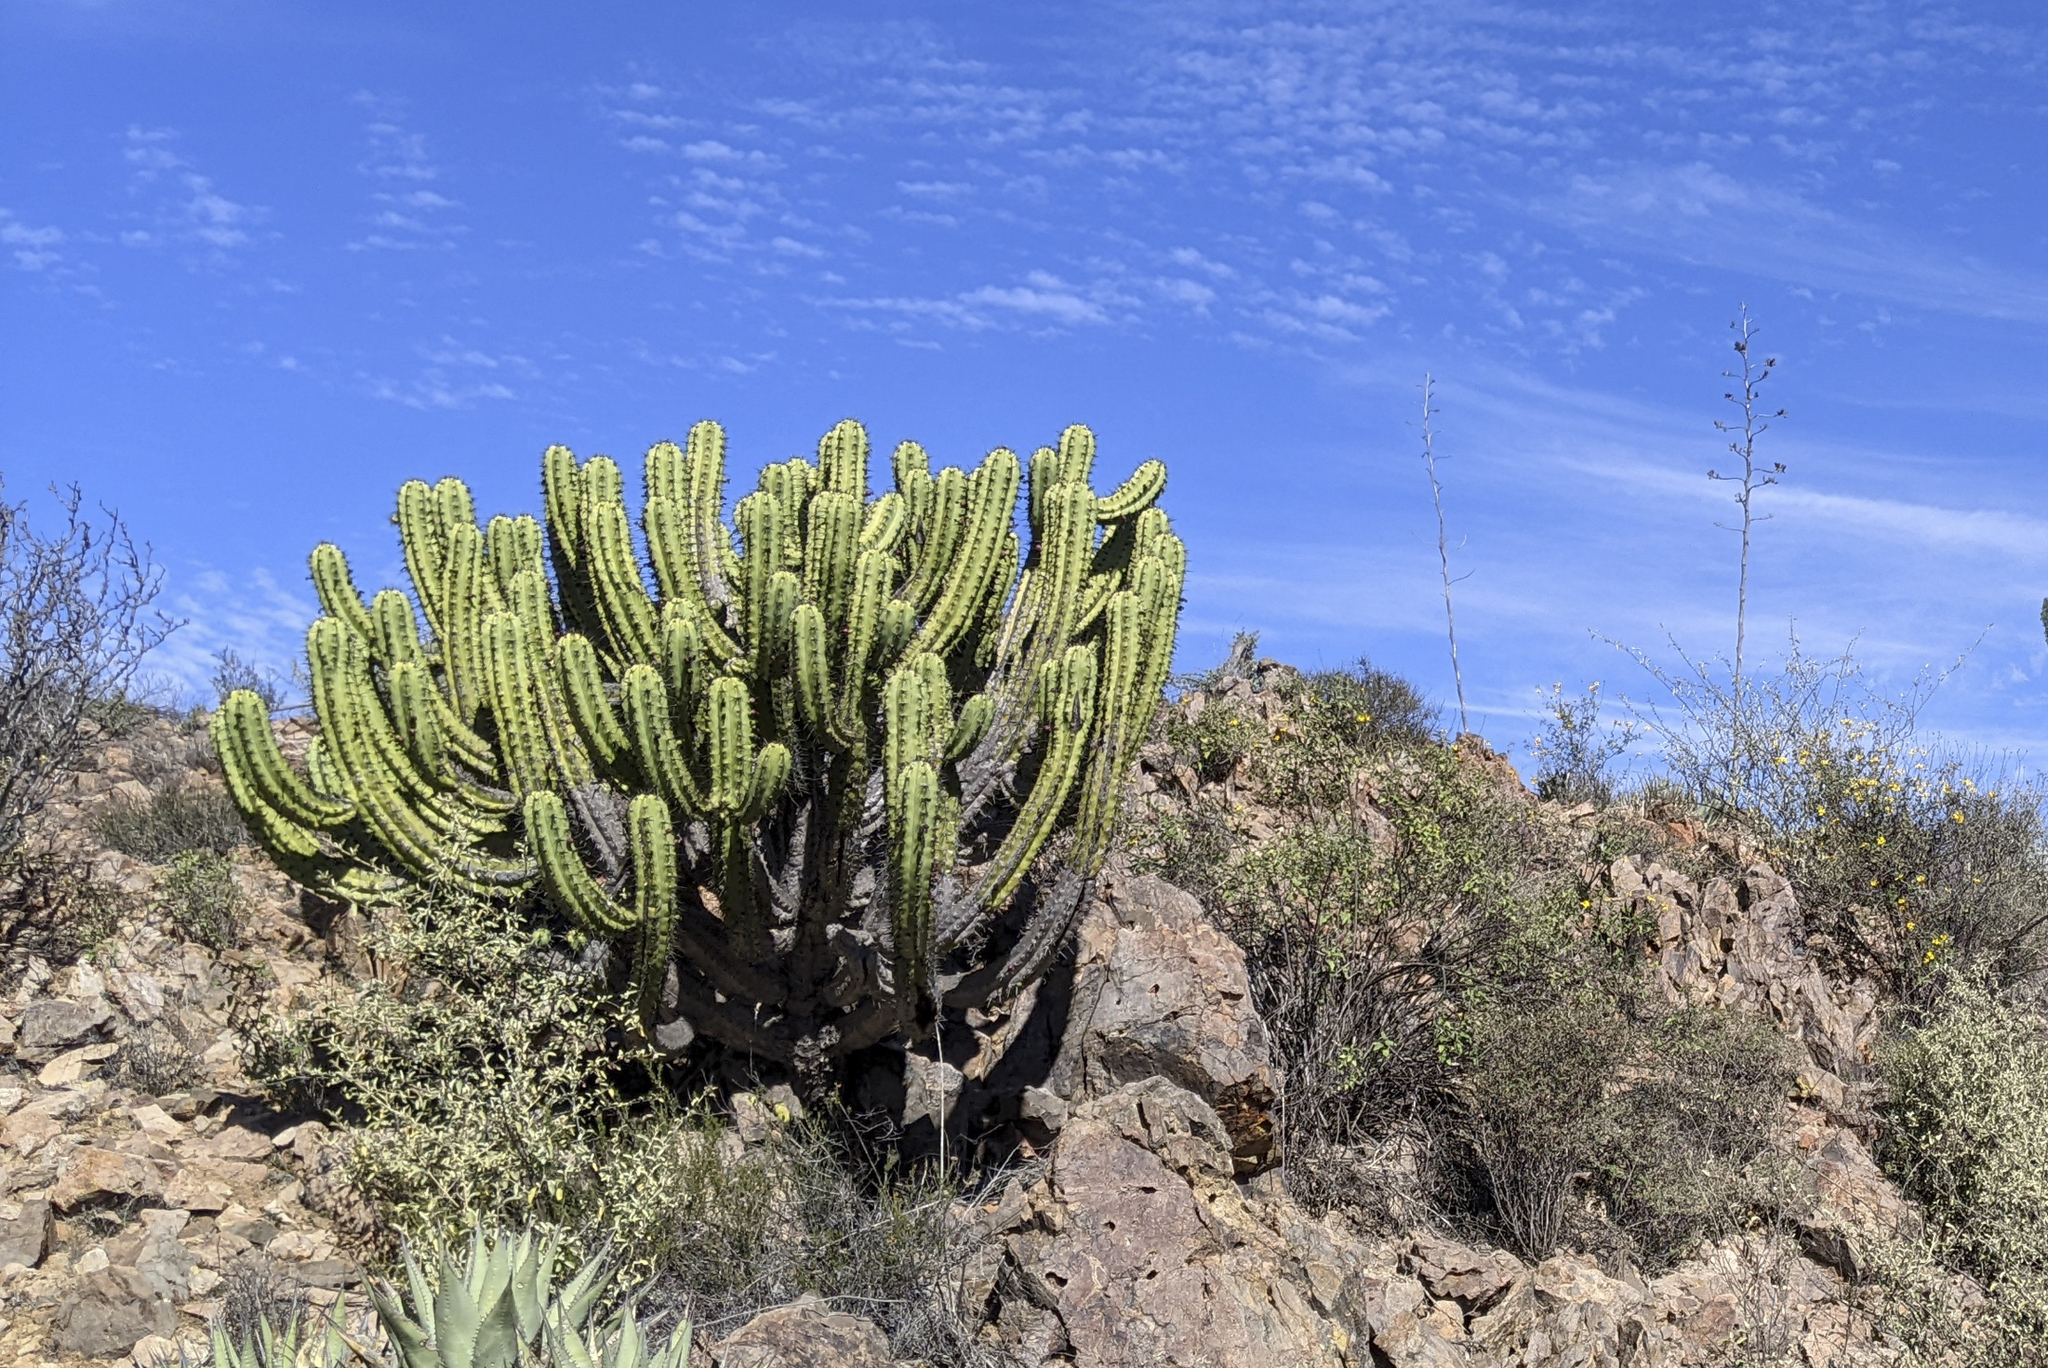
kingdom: Plantae
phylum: Tracheophyta
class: Magnoliopsida
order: Caryophyllales
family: Cactaceae
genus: Myrtillocactus
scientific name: Myrtillocactus cochal
